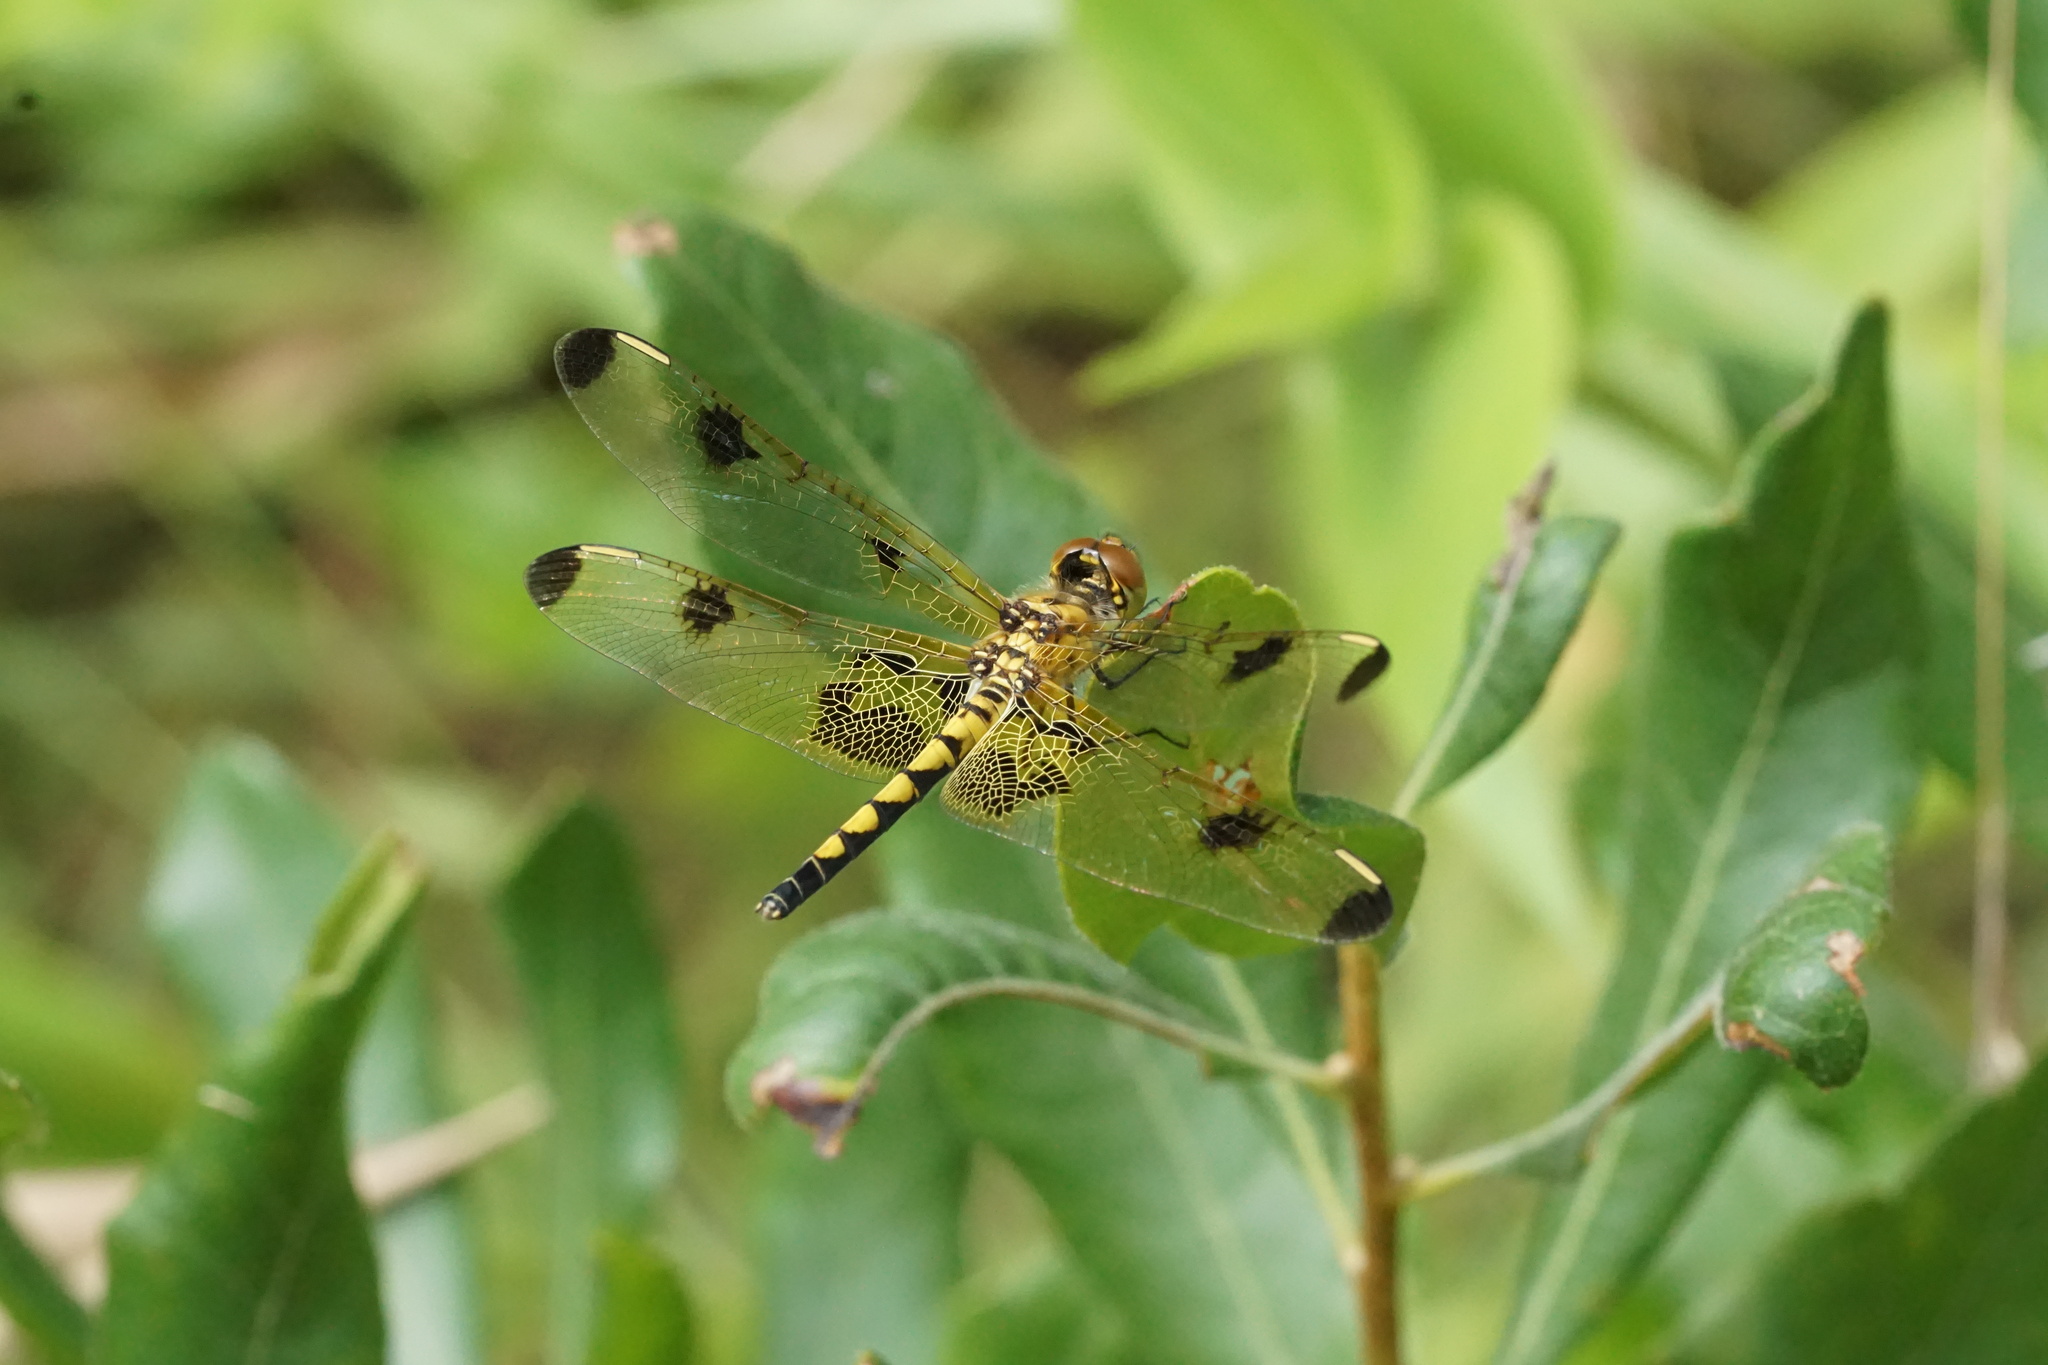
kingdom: Animalia
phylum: Arthropoda
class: Insecta
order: Odonata
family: Libellulidae
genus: Celithemis
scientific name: Celithemis elisa
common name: Calico pennant
